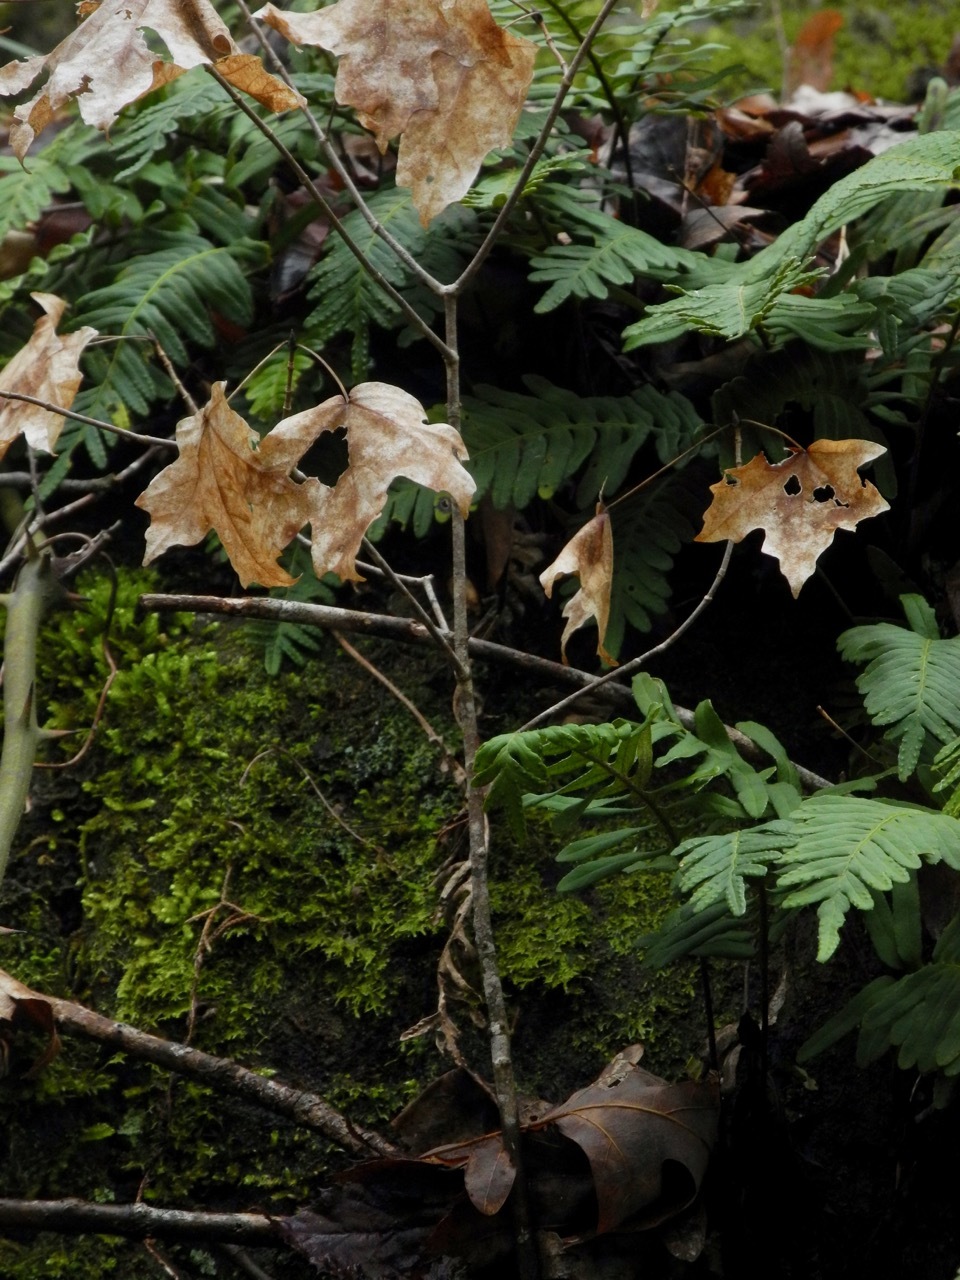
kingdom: Plantae
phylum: Tracheophyta
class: Magnoliopsida
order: Sapindales
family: Sapindaceae
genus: Acer
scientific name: Acer floridanum
